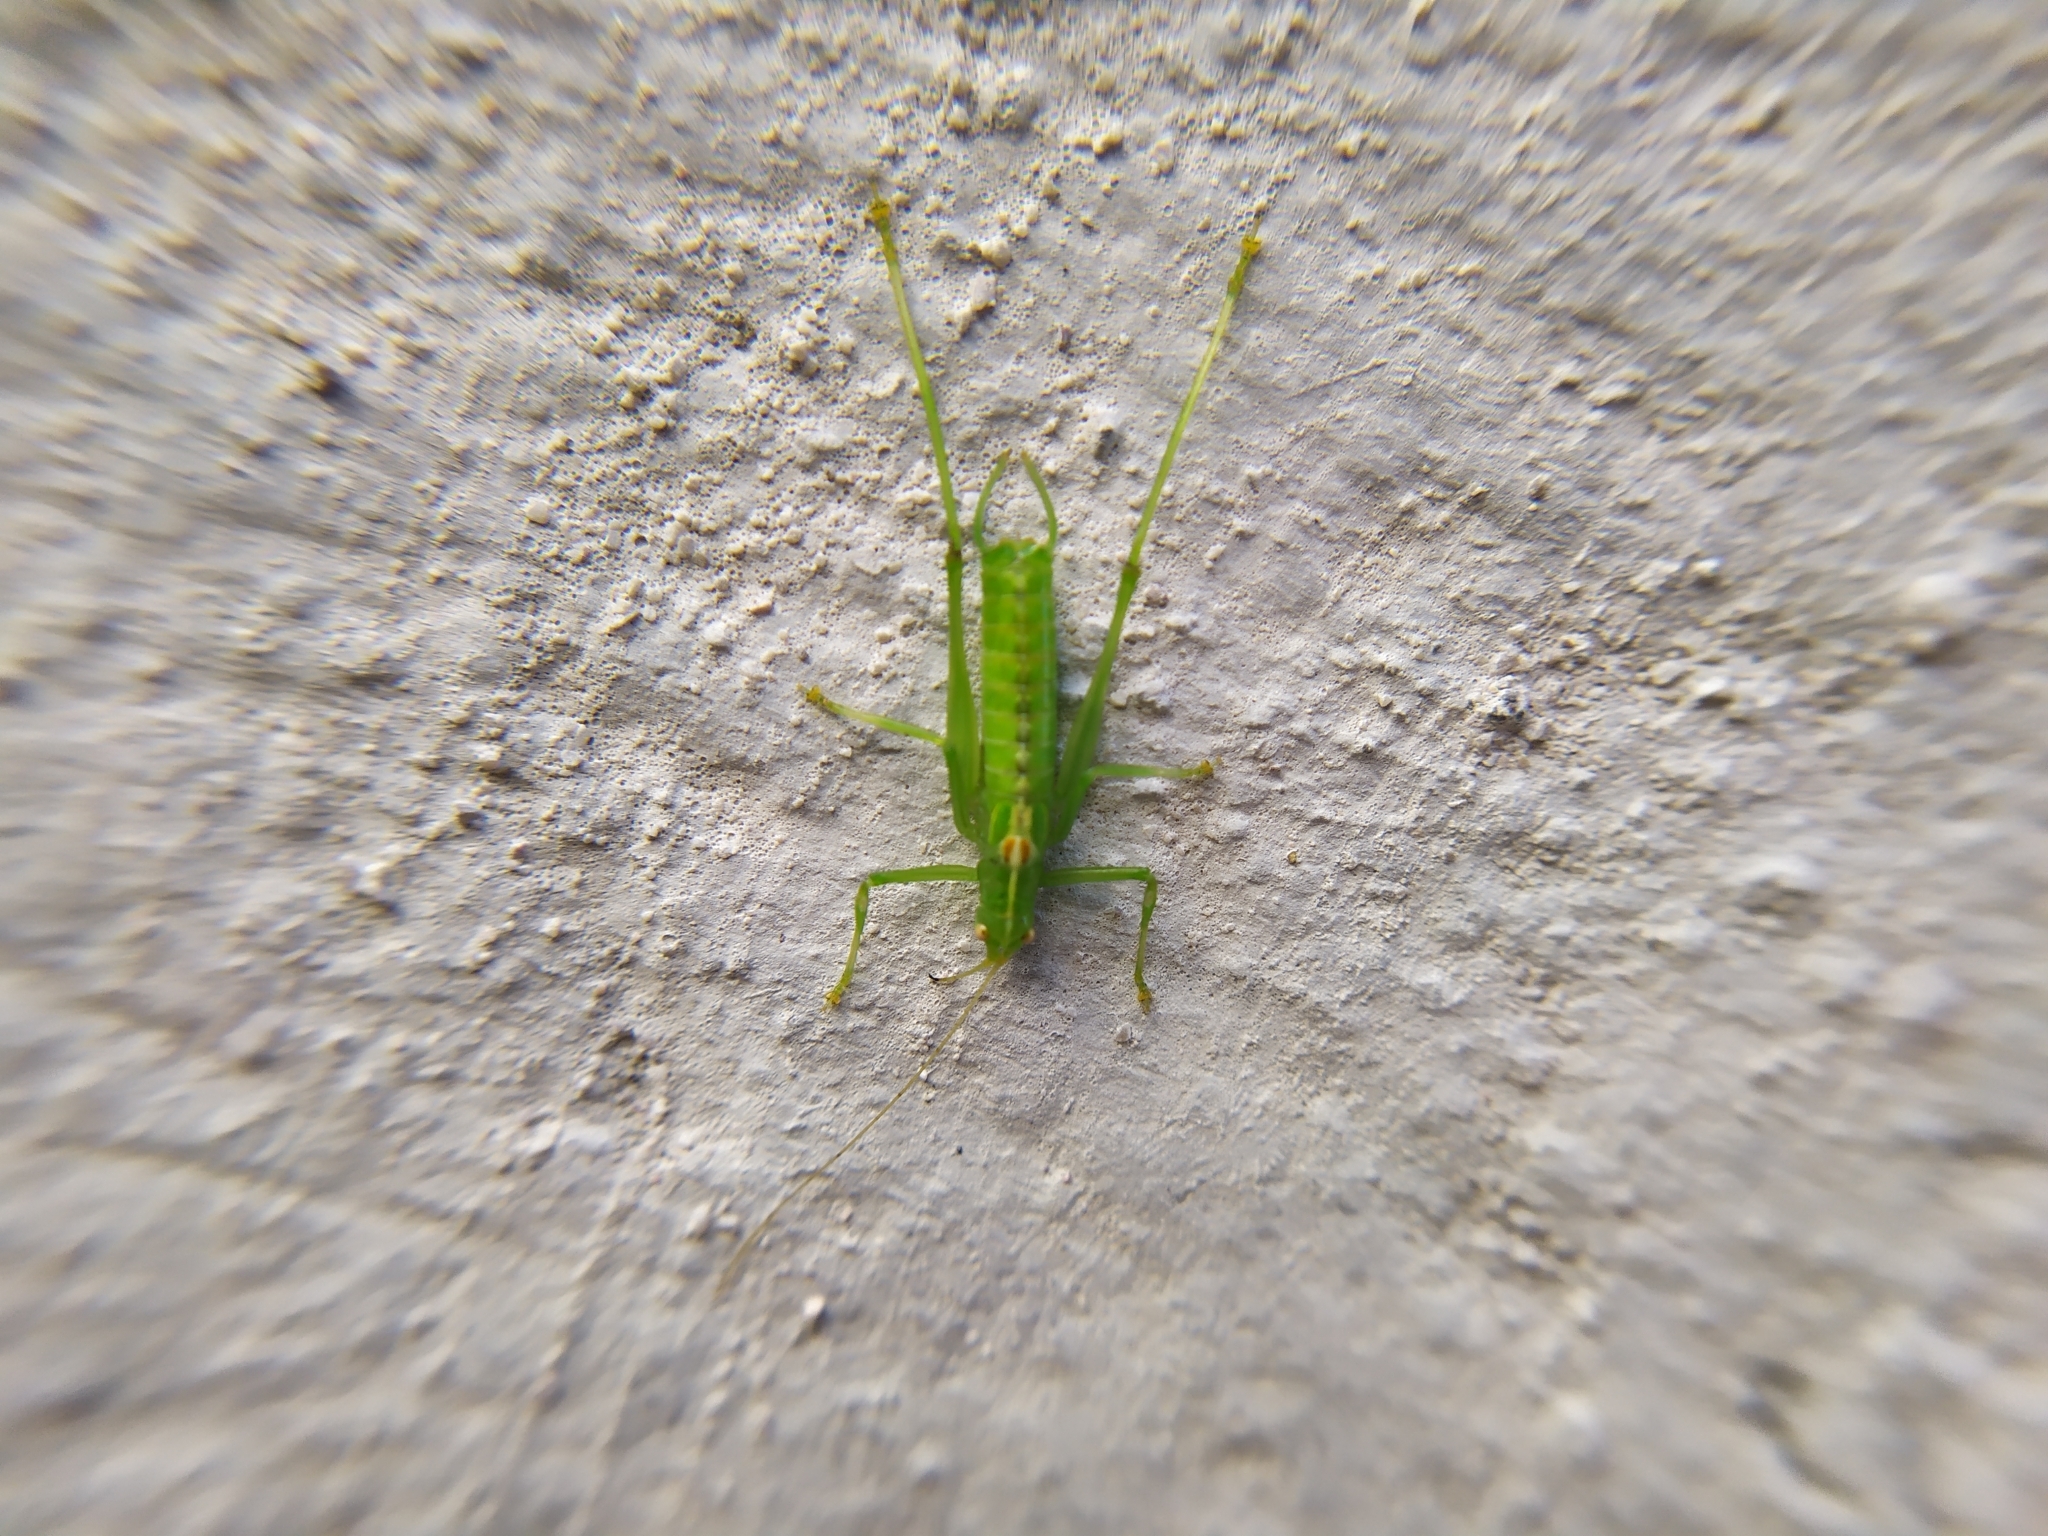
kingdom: Animalia
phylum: Arthropoda
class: Insecta
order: Orthoptera
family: Tettigoniidae
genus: Meconema
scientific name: Meconema meridionale
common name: Southern oak bush-cricket
